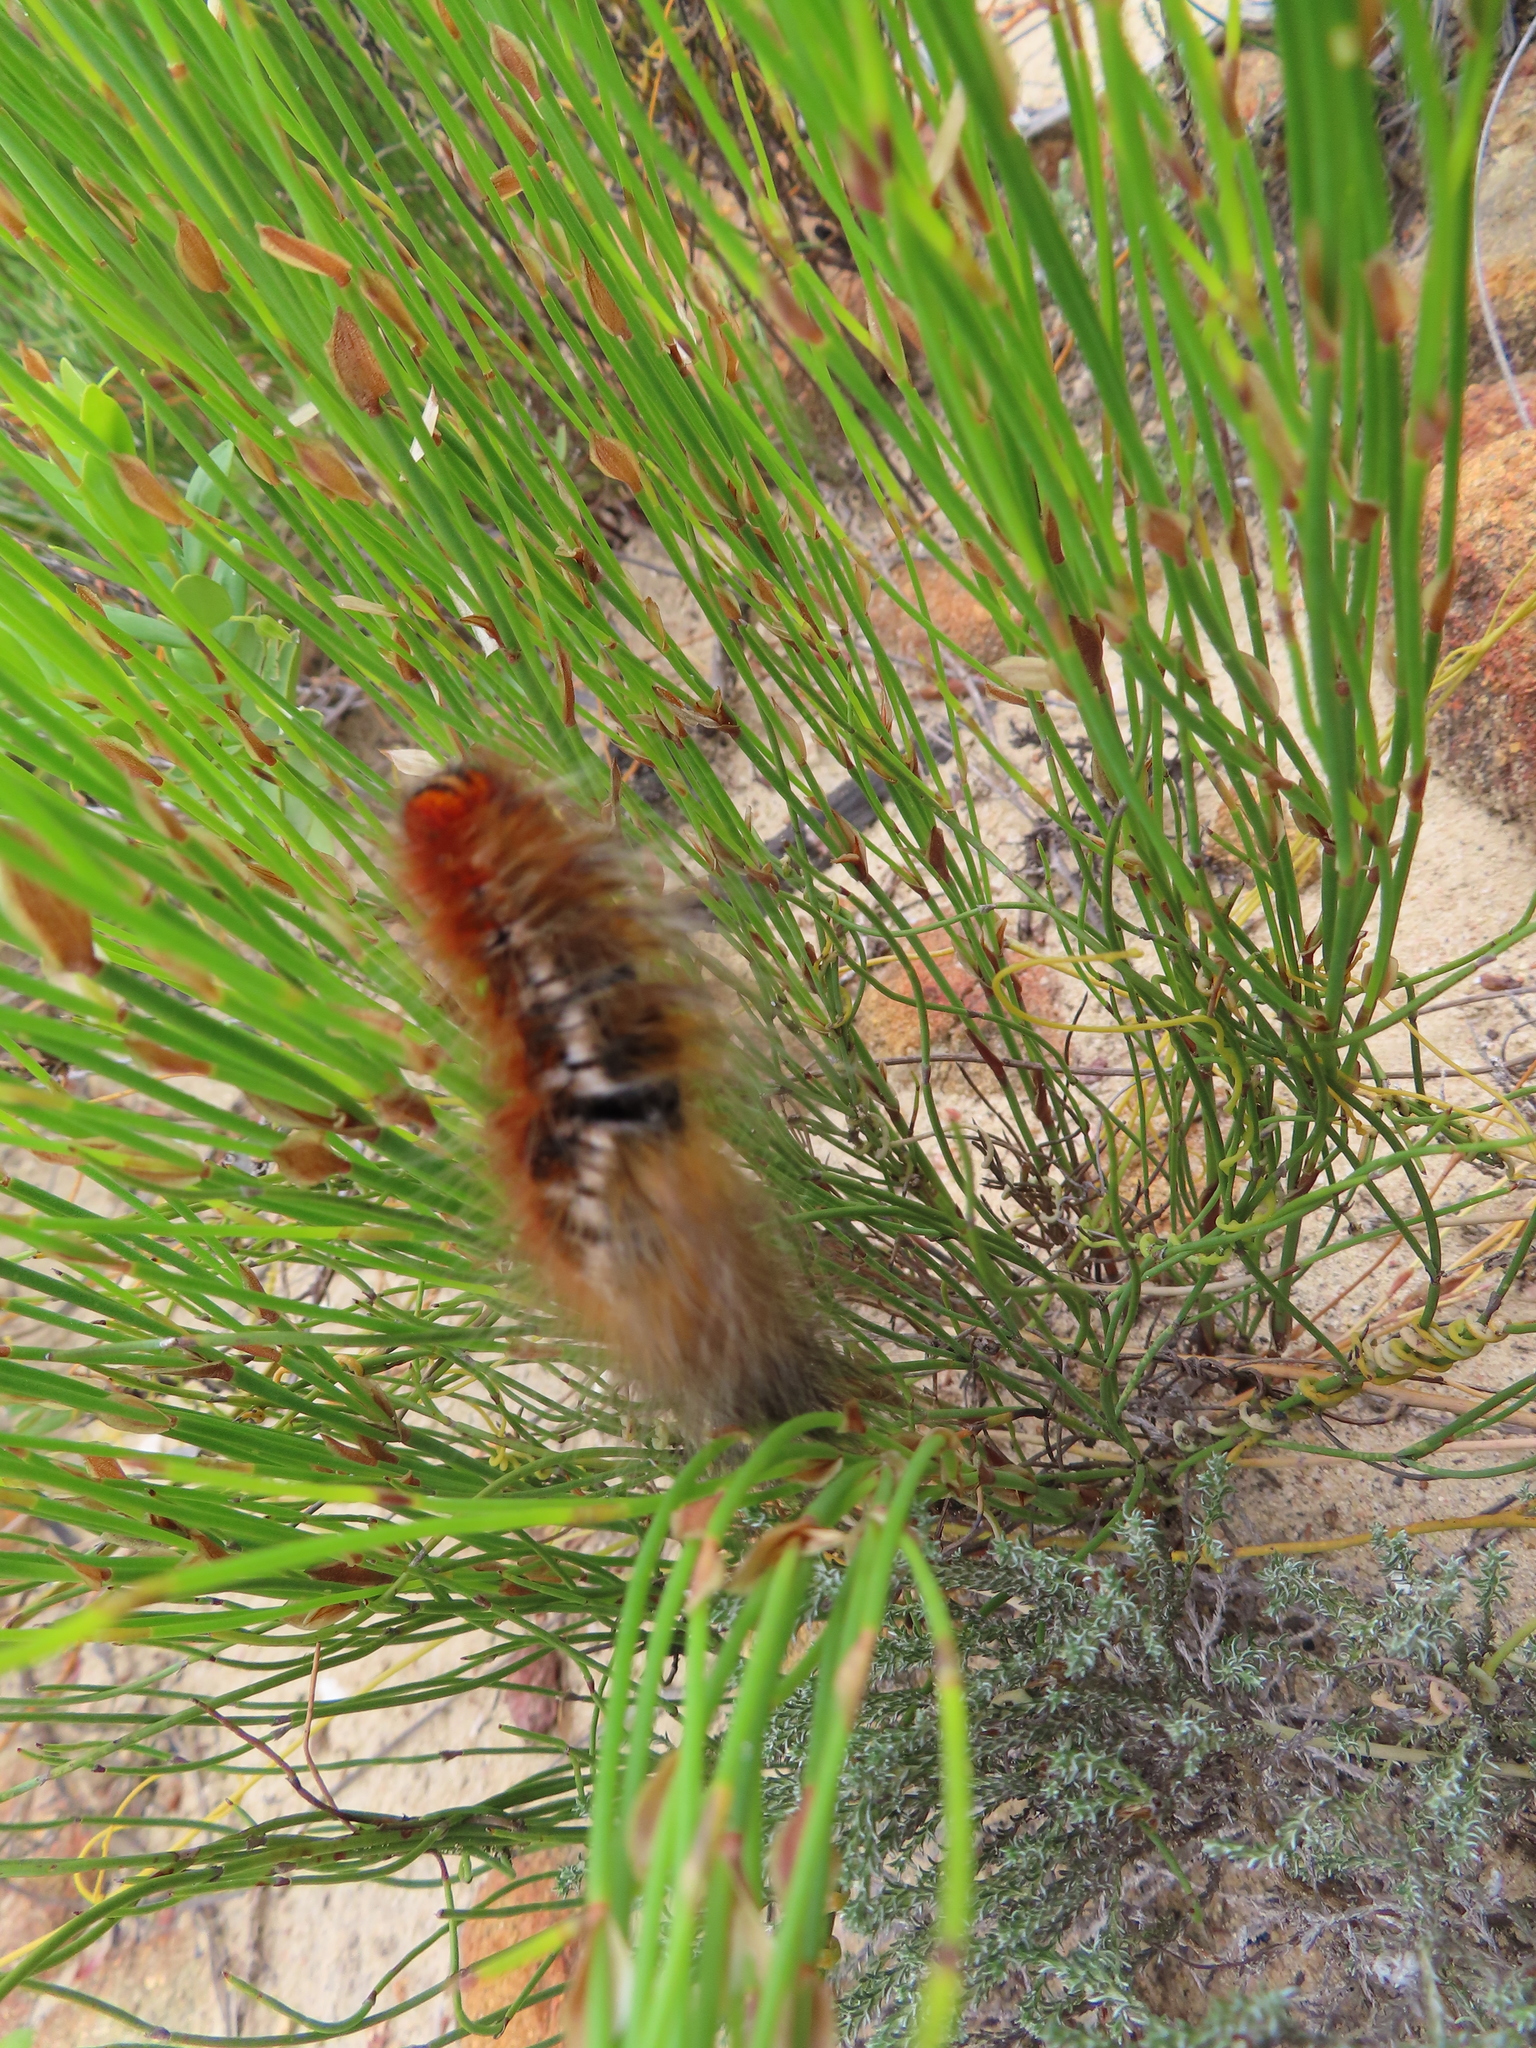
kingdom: Animalia
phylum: Arthropoda
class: Insecta
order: Lepidoptera
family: Lasiocampidae
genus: Mesocelis
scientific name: Mesocelis monticola
